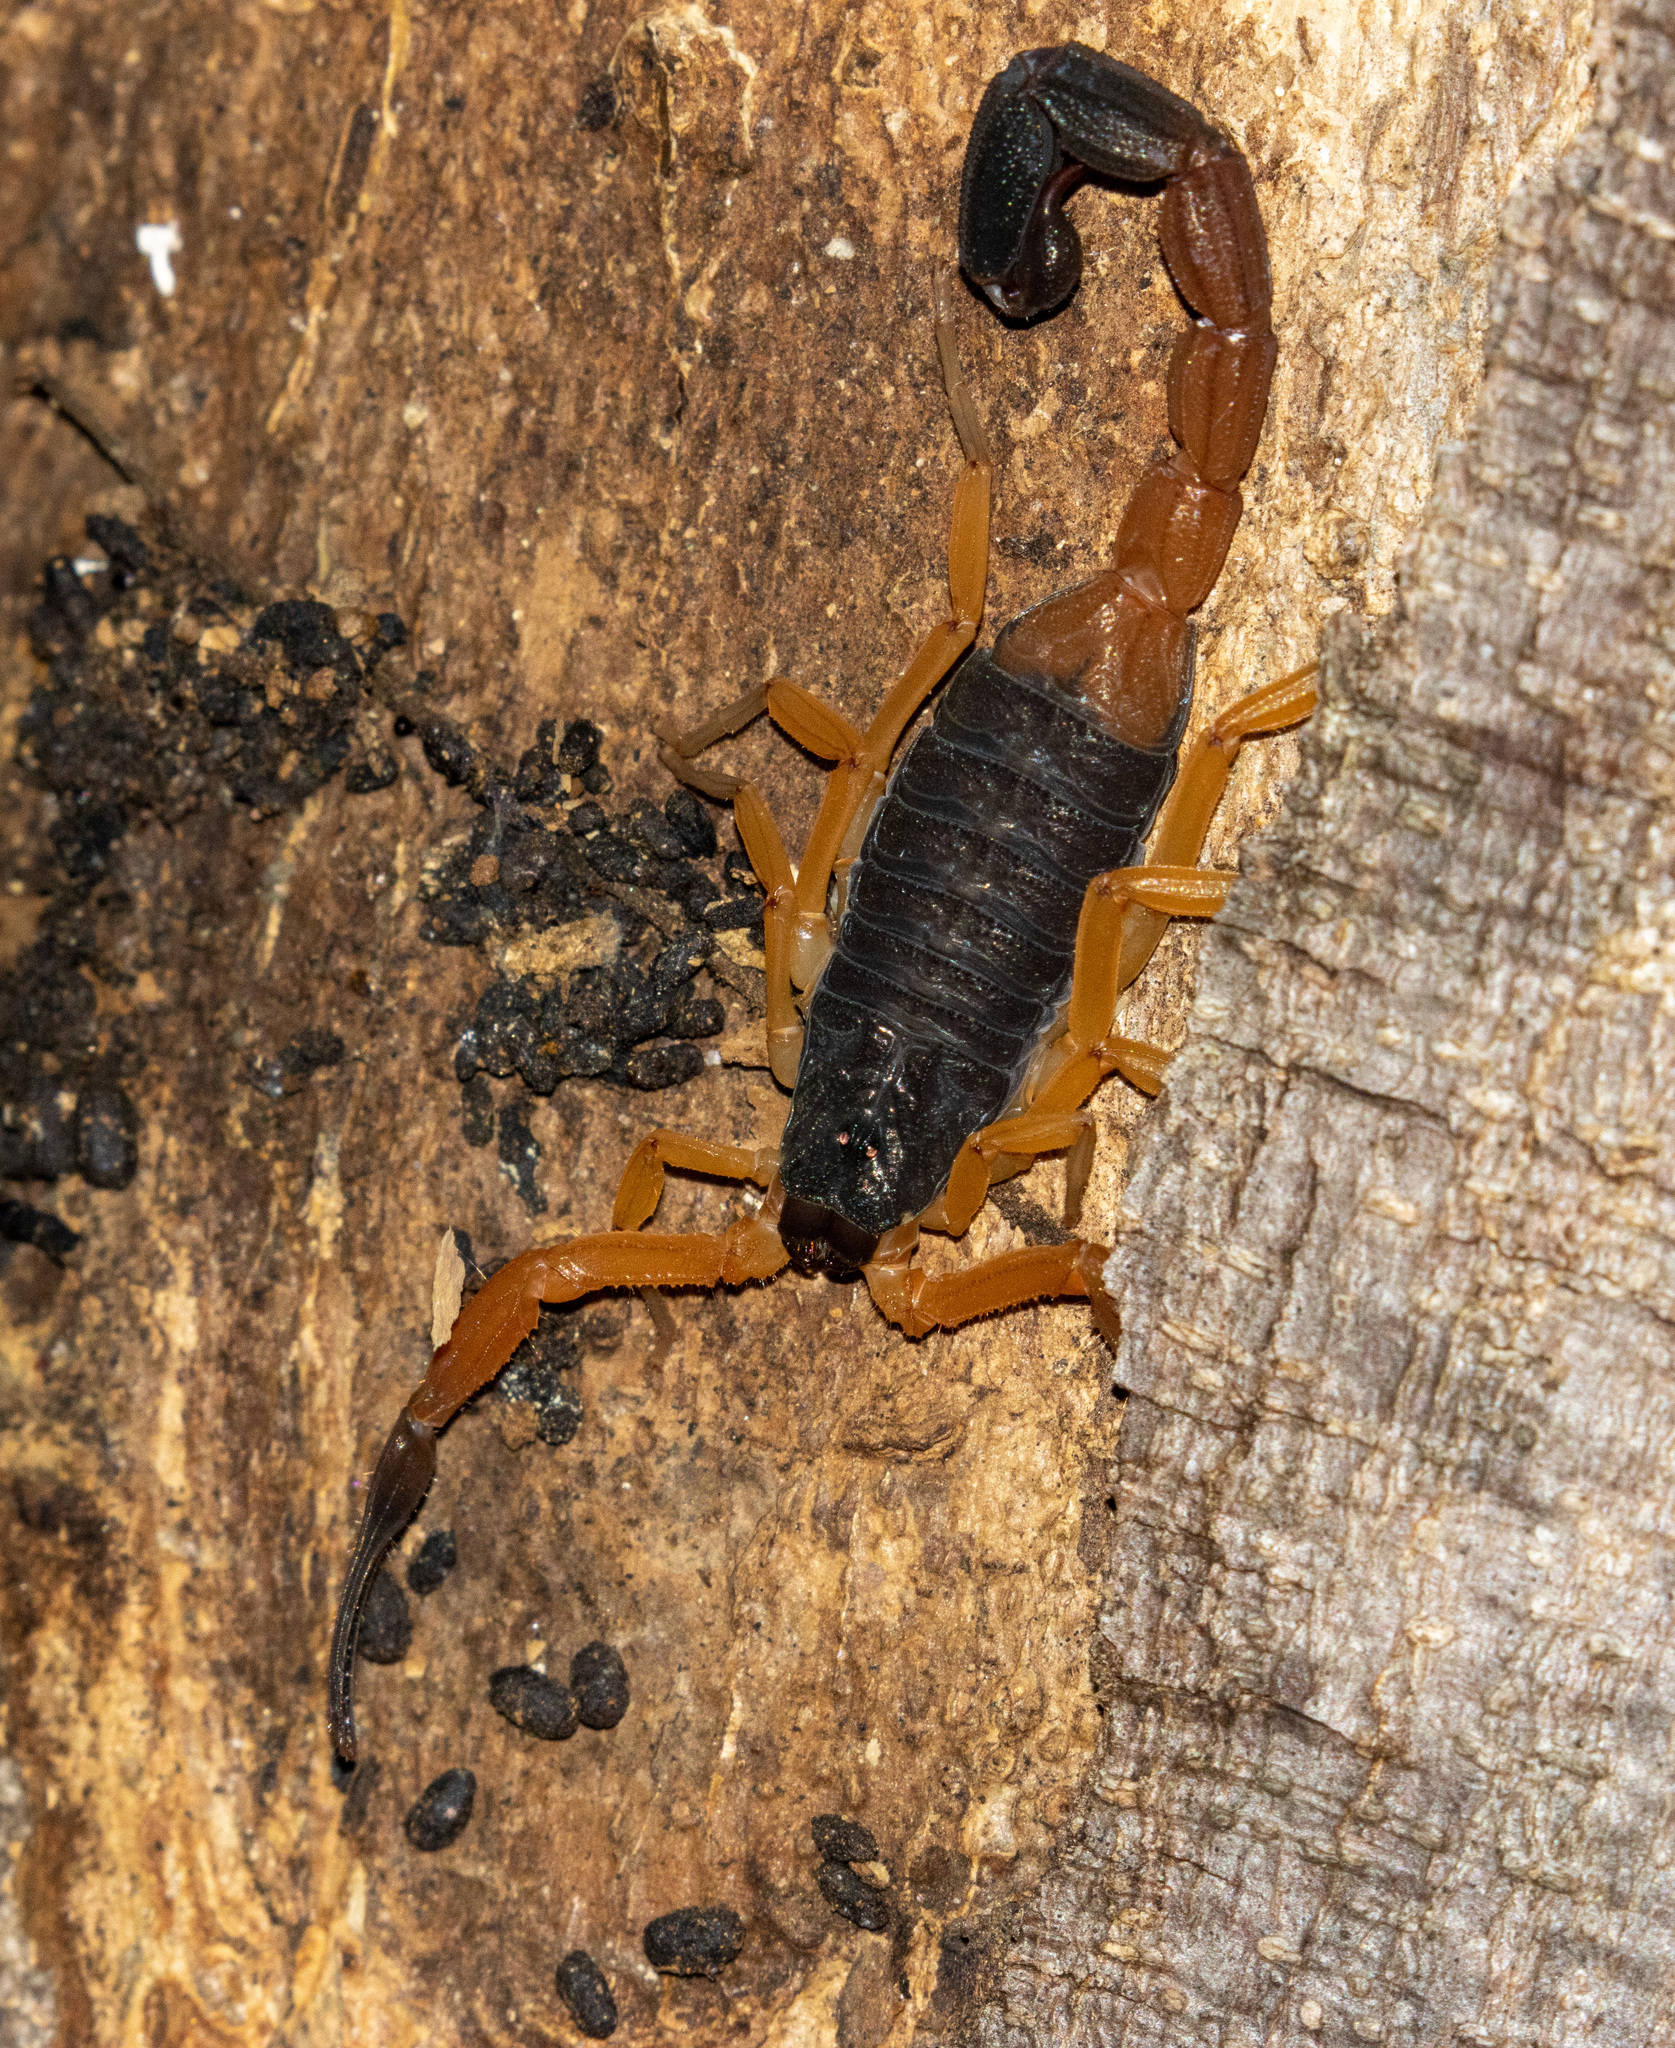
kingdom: Animalia
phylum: Arthropoda
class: Arachnida
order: Scorpiones
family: Buthidae
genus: Jaguajir
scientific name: Jaguajir agamemnon
